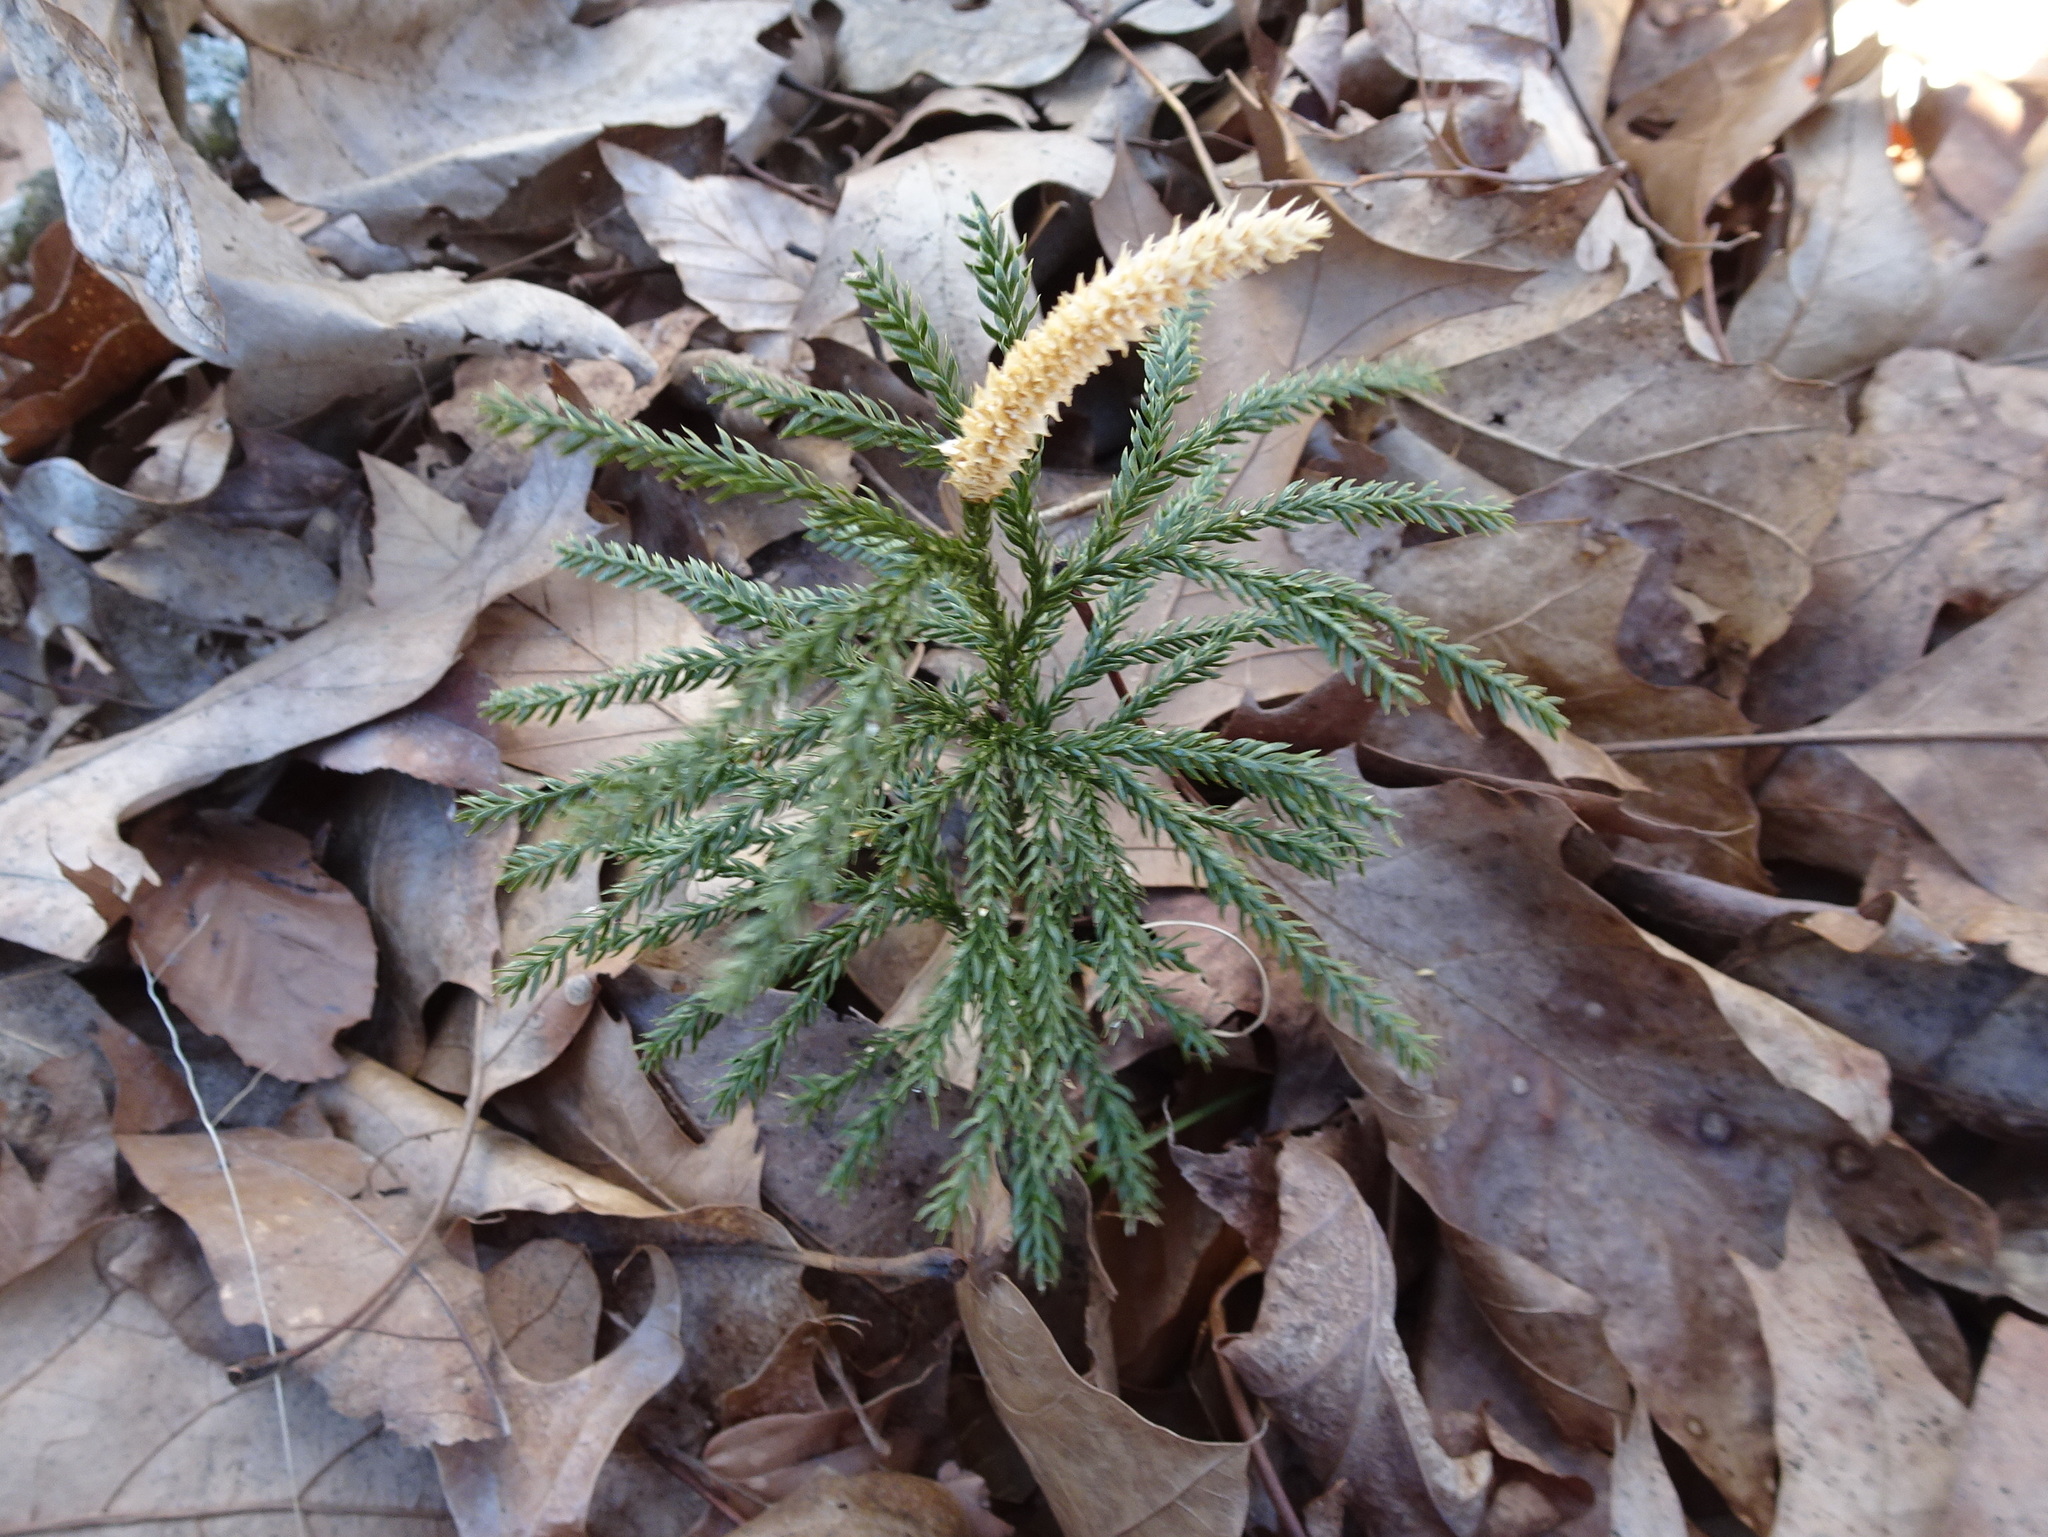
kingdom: Plantae
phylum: Tracheophyta
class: Lycopodiopsida
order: Lycopodiales
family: Lycopodiaceae
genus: Dendrolycopodium
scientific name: Dendrolycopodium obscurum
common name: Common ground-pine
